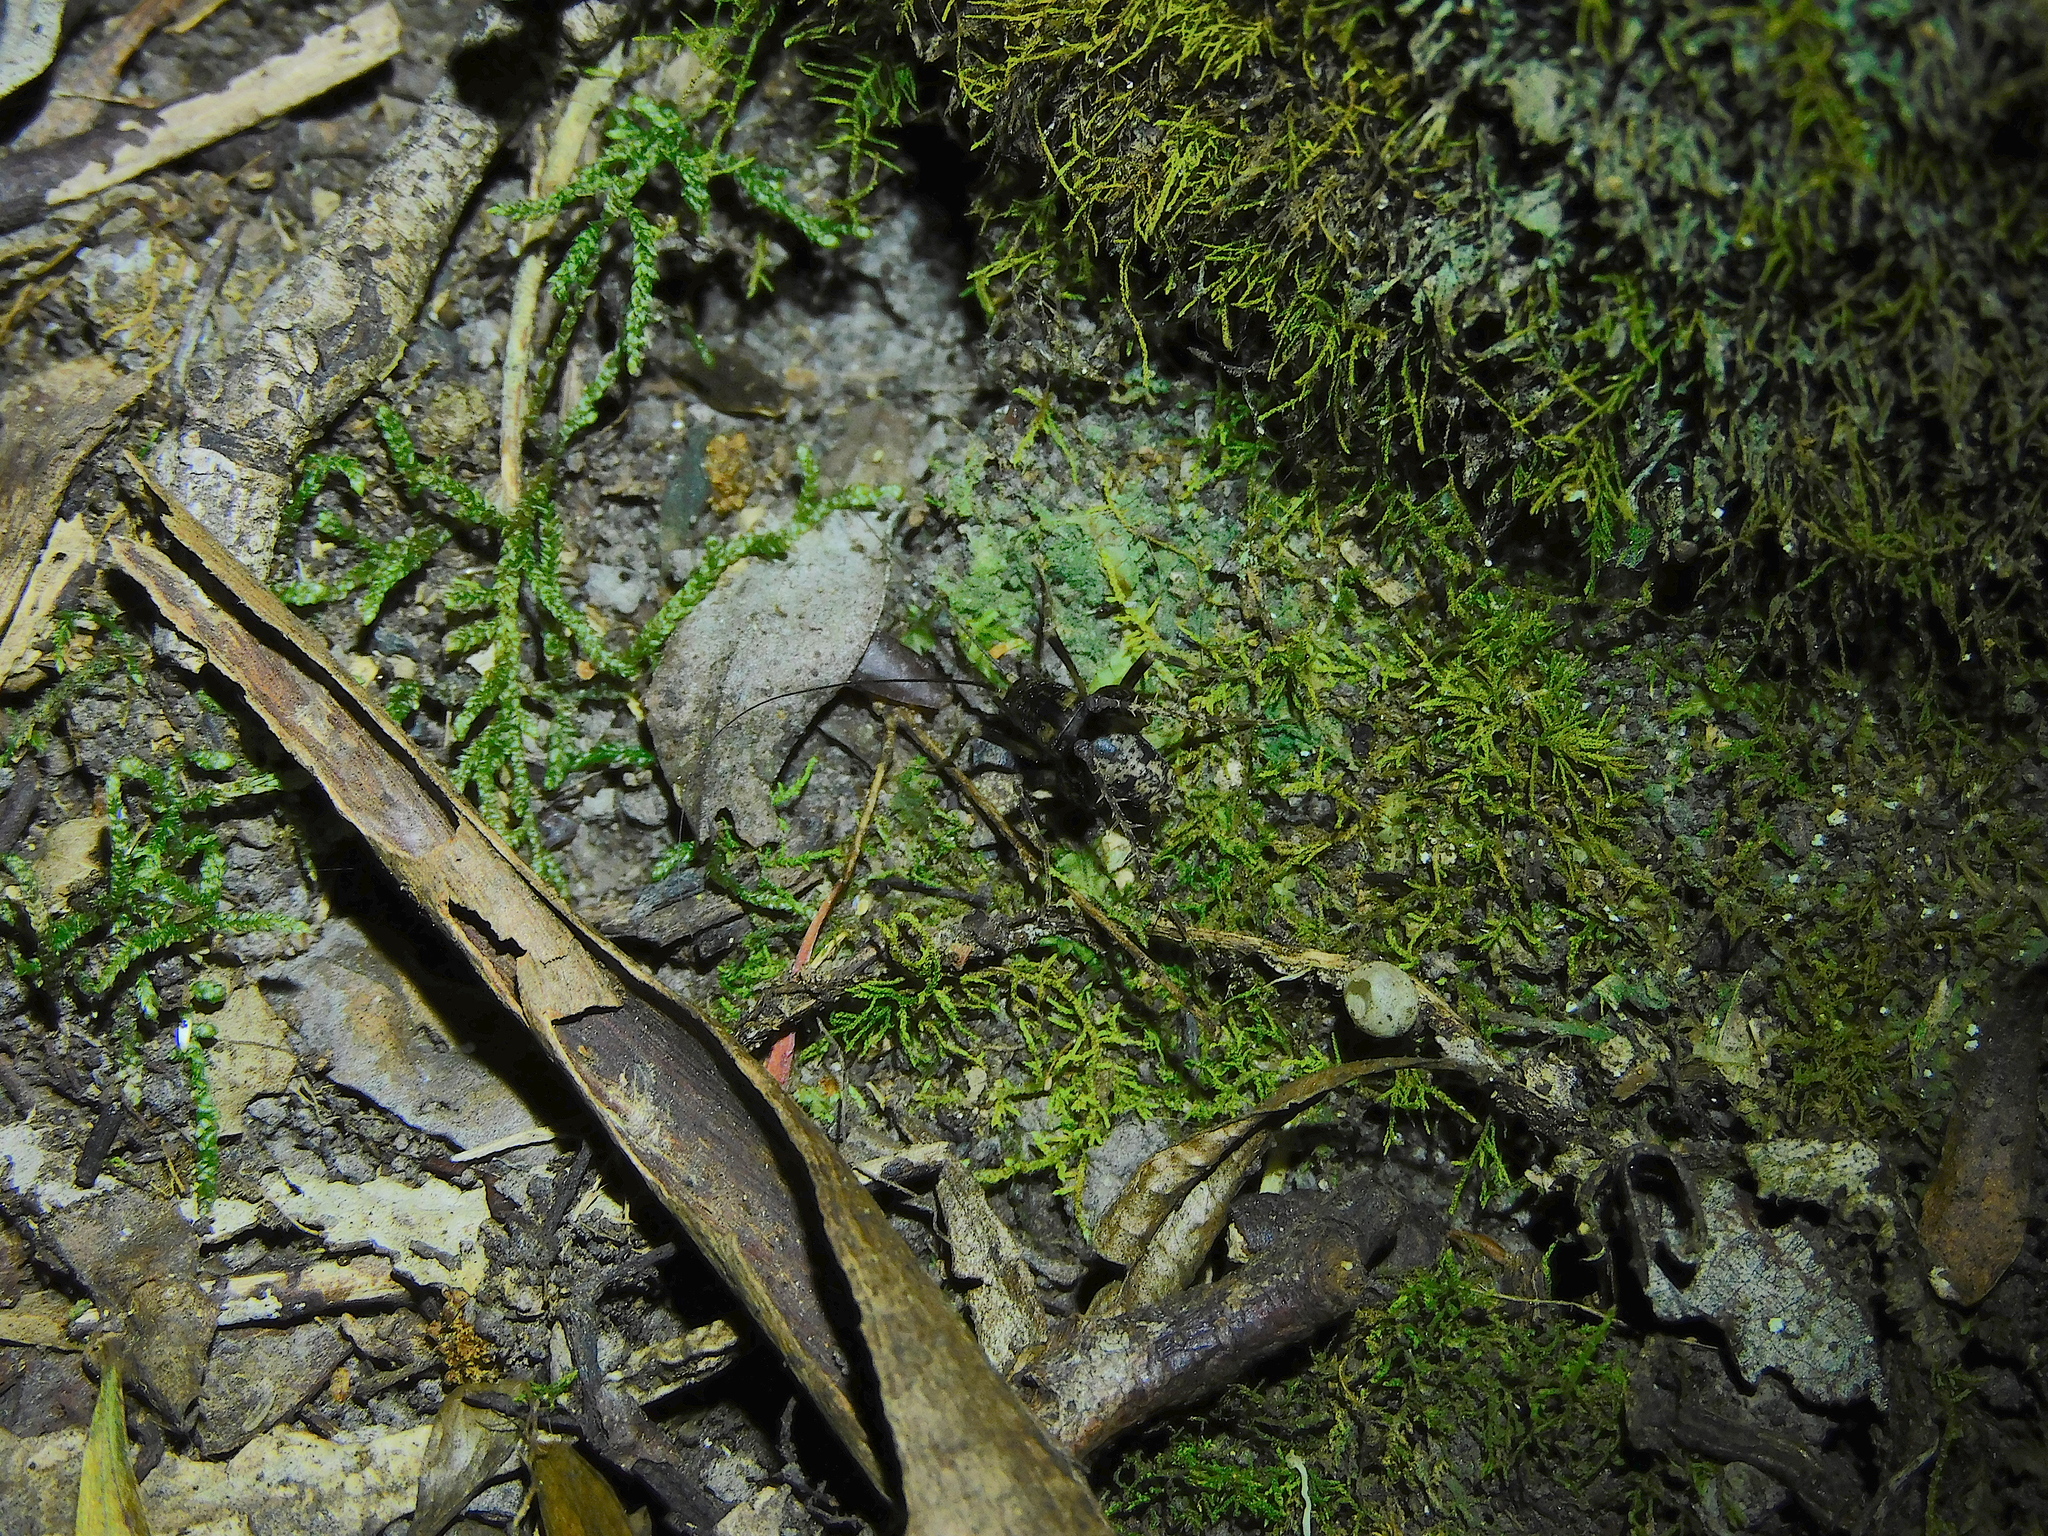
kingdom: Animalia
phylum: Arthropoda
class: Insecta
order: Orthoptera
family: Rhaphidophoridae
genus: Parvotettix
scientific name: Parvotettix domesticus
